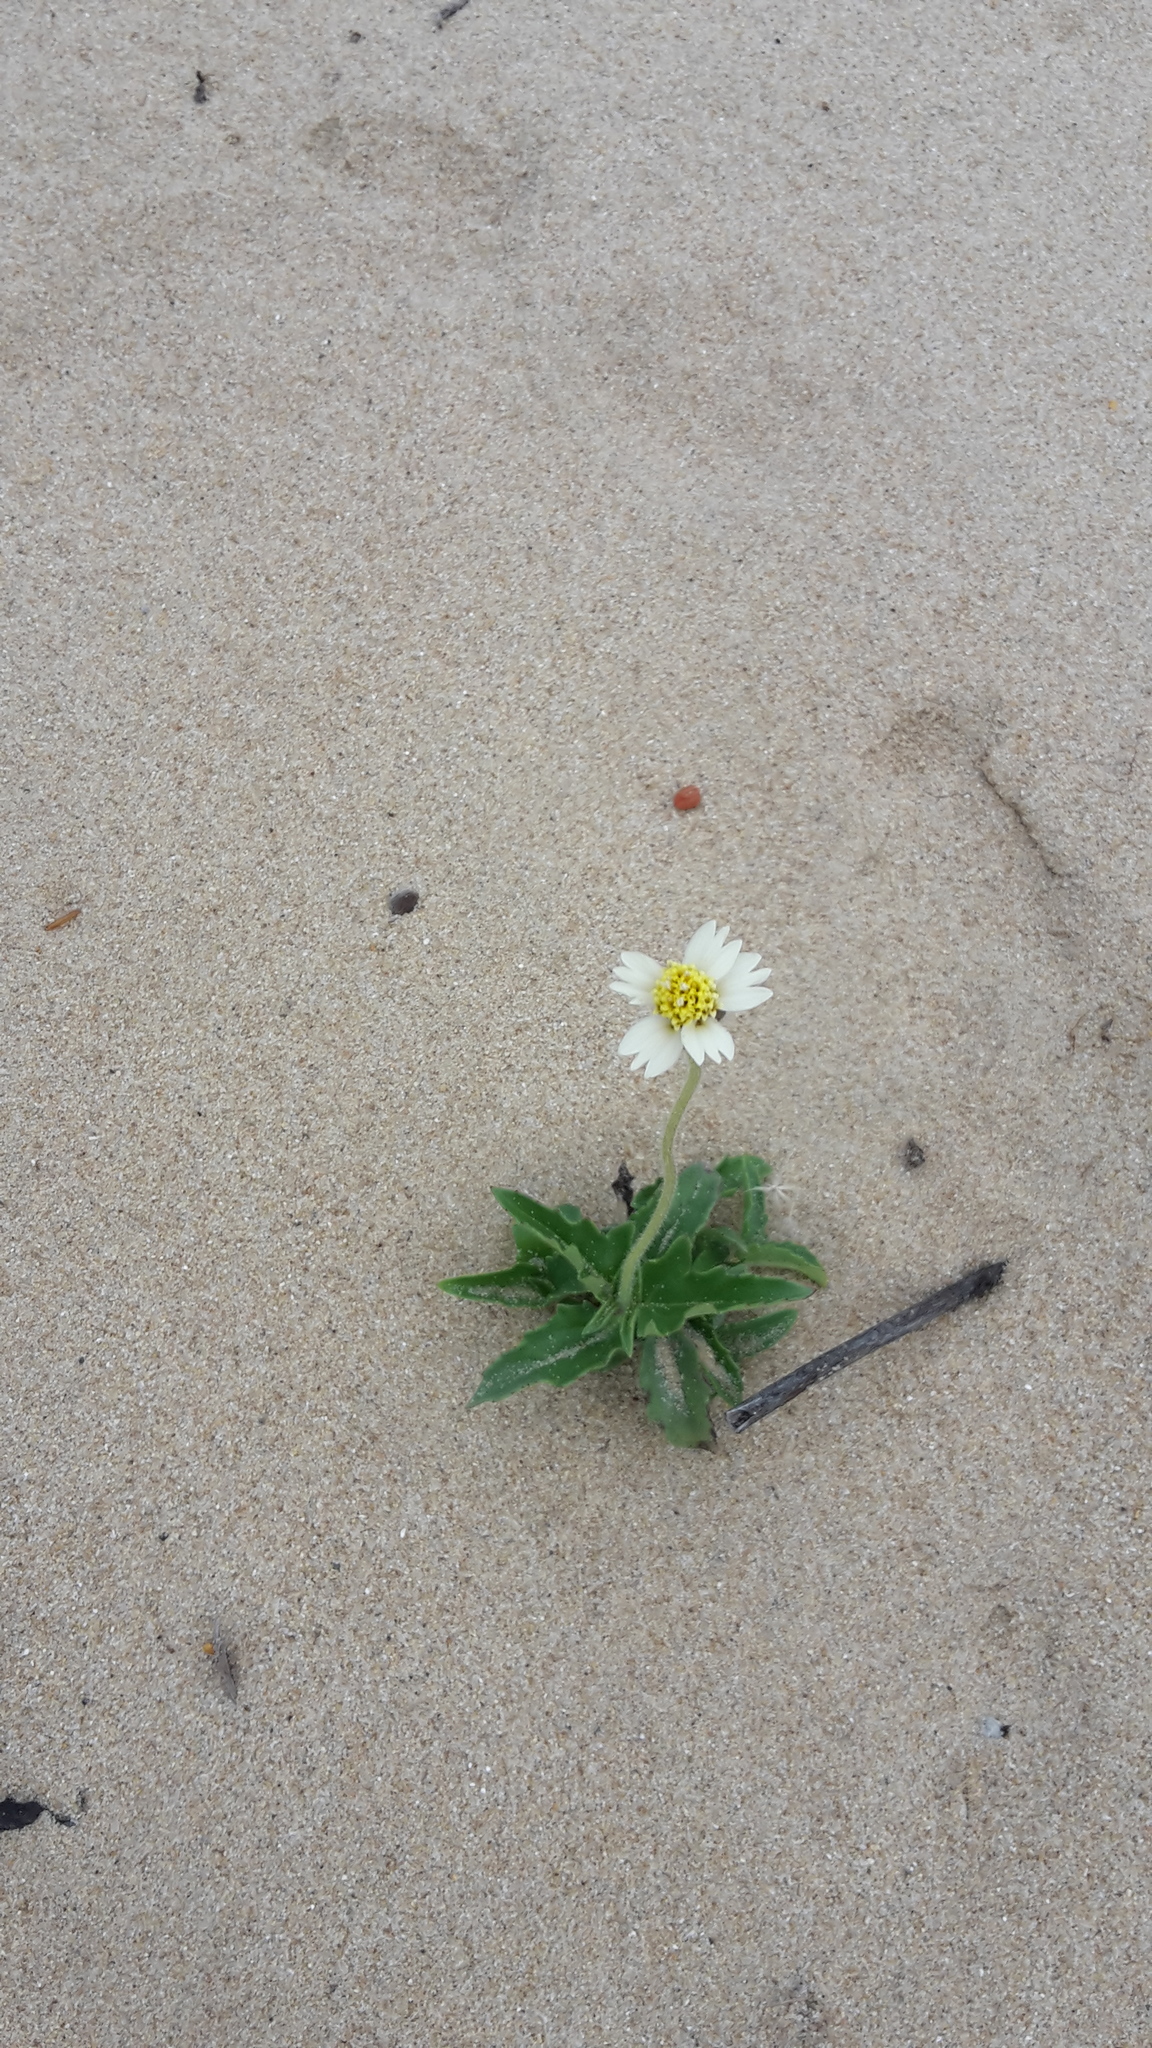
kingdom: Plantae
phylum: Tracheophyta
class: Magnoliopsida
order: Asterales
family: Asteraceae
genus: Tridax
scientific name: Tridax procumbens
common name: Coatbuttons
